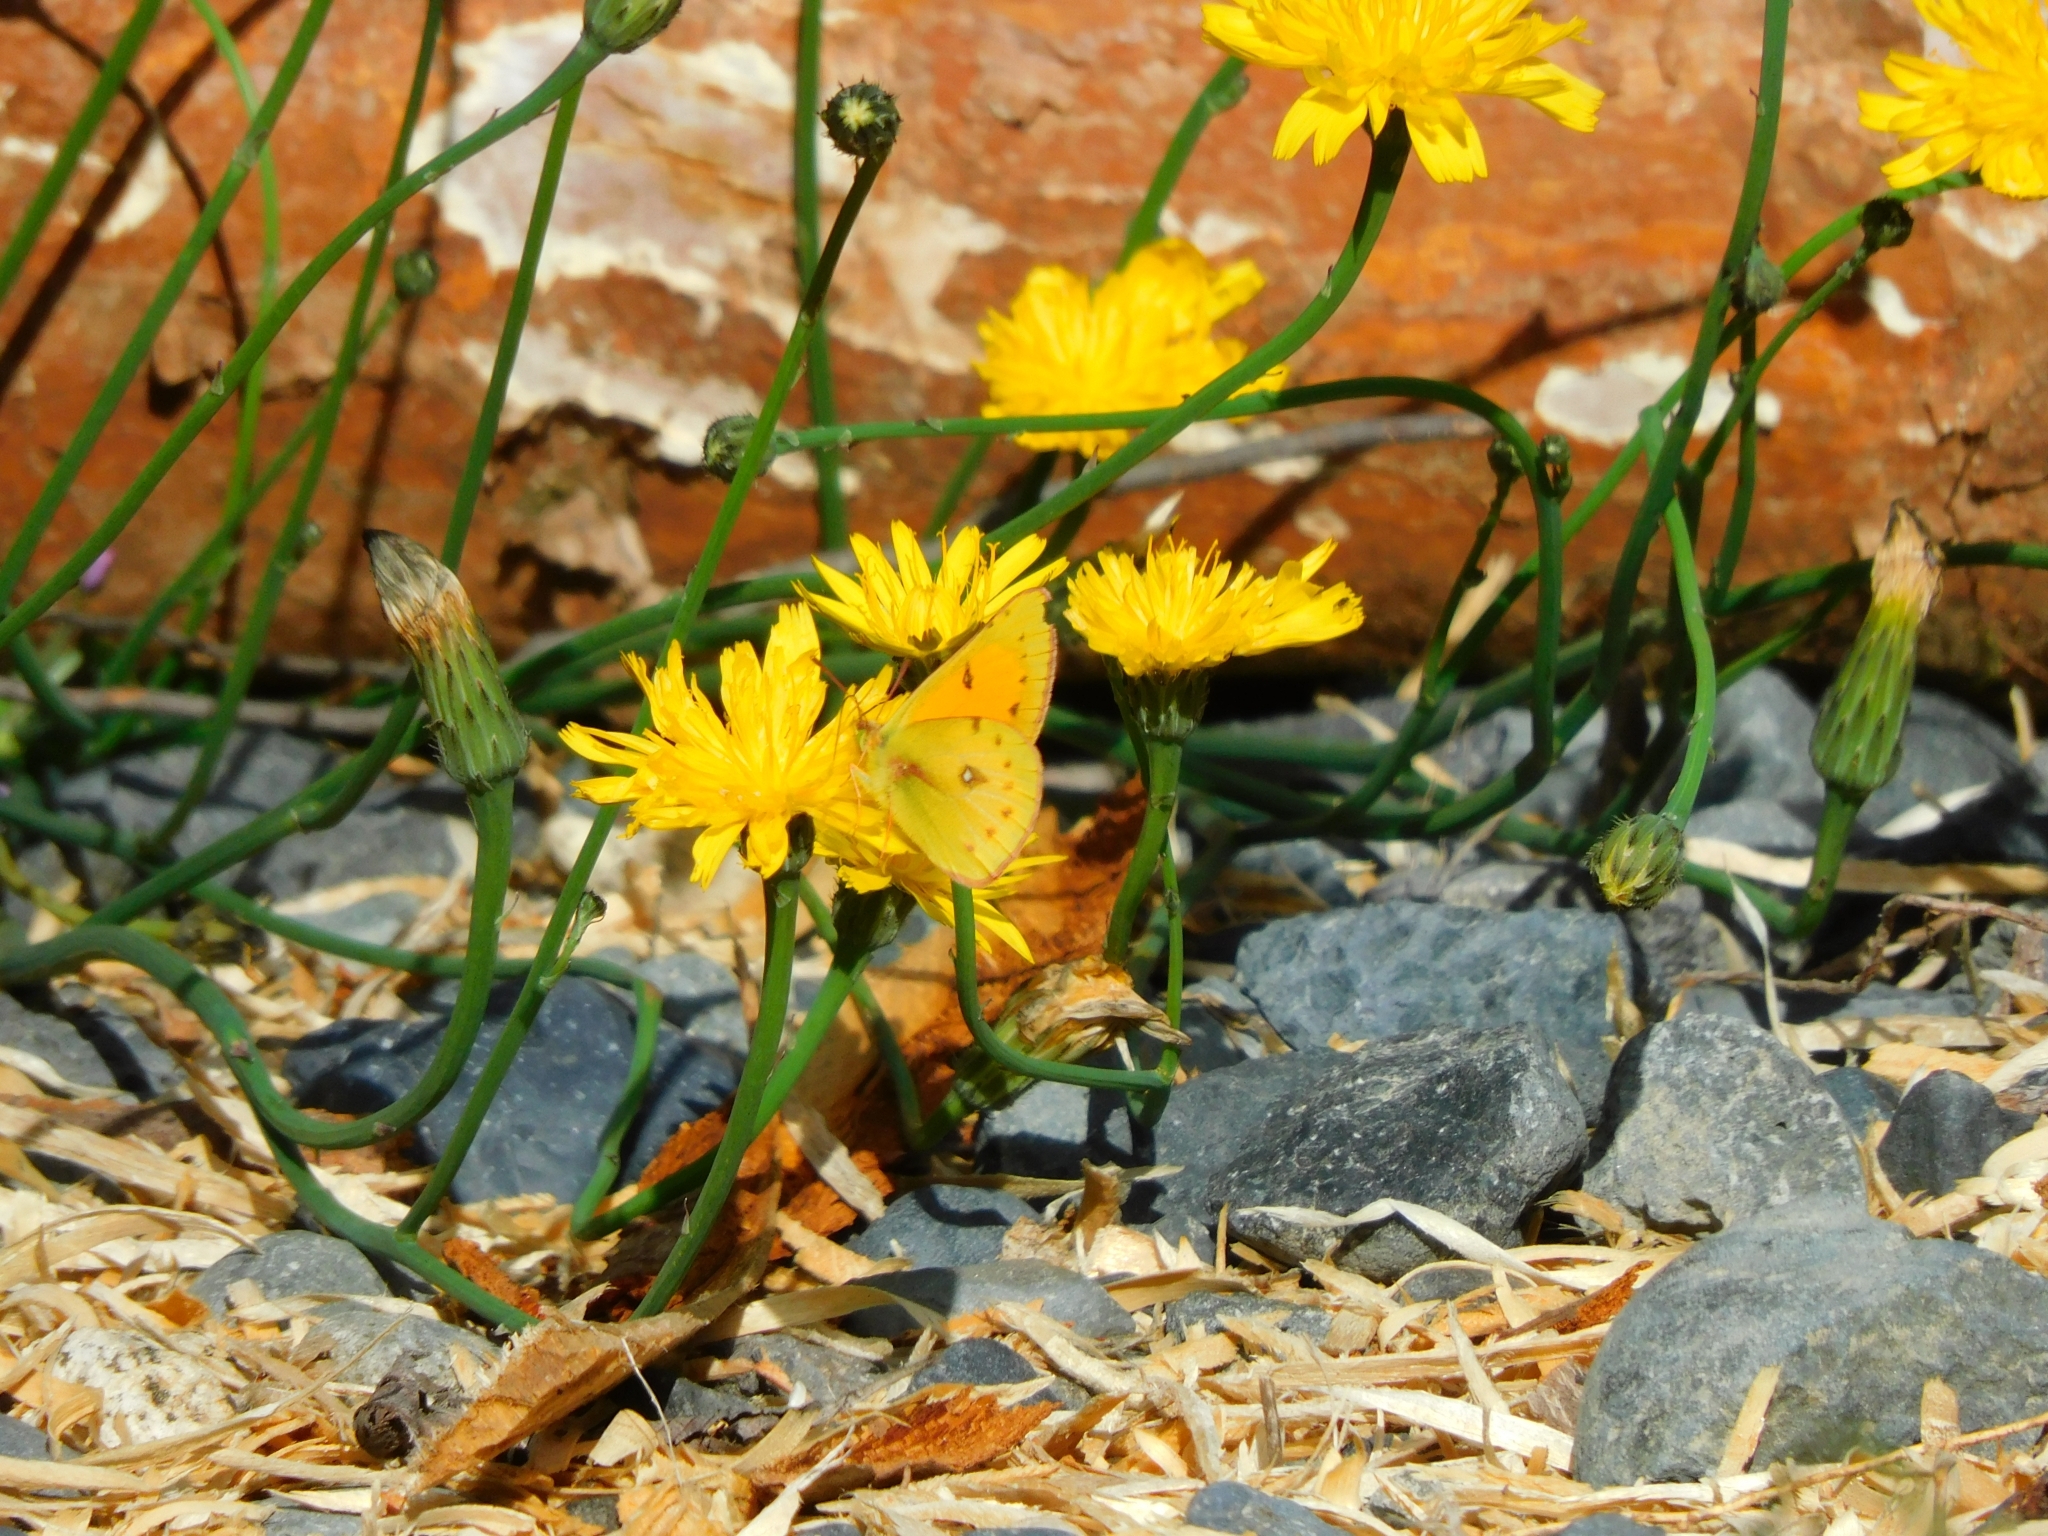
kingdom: Animalia
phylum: Arthropoda
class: Insecta
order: Lepidoptera
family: Pieridae
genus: Colias
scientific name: Colias vauthierii
